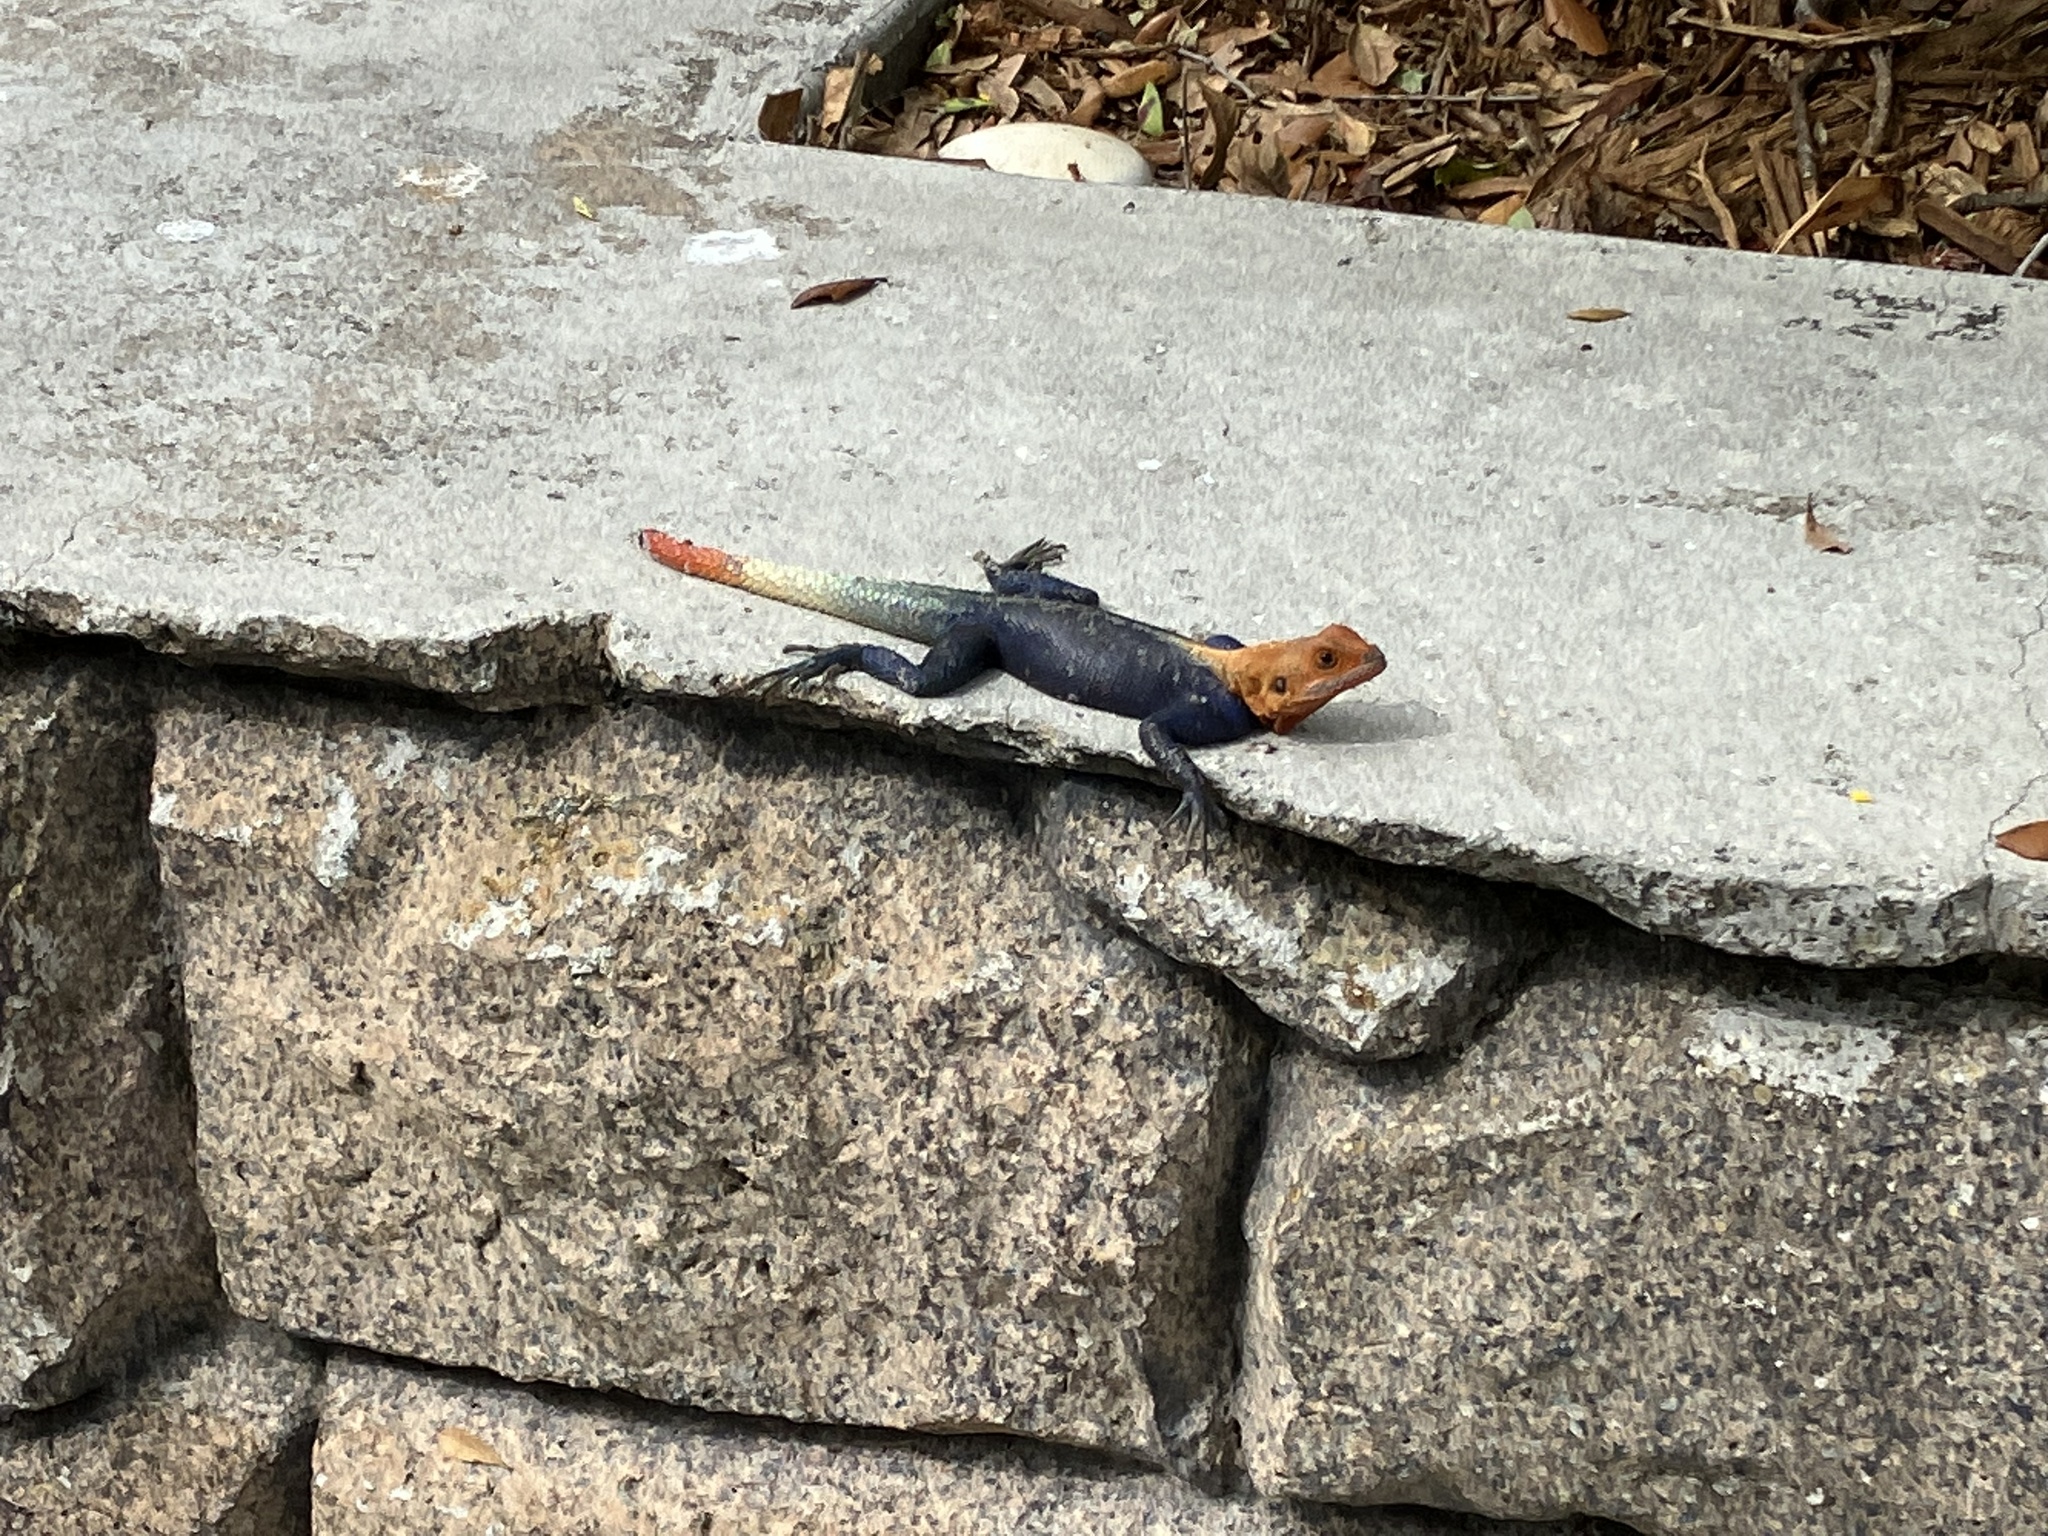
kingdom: Animalia
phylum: Chordata
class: Squamata
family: Agamidae
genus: Agama
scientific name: Agama picticauda
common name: Red-headed agama
